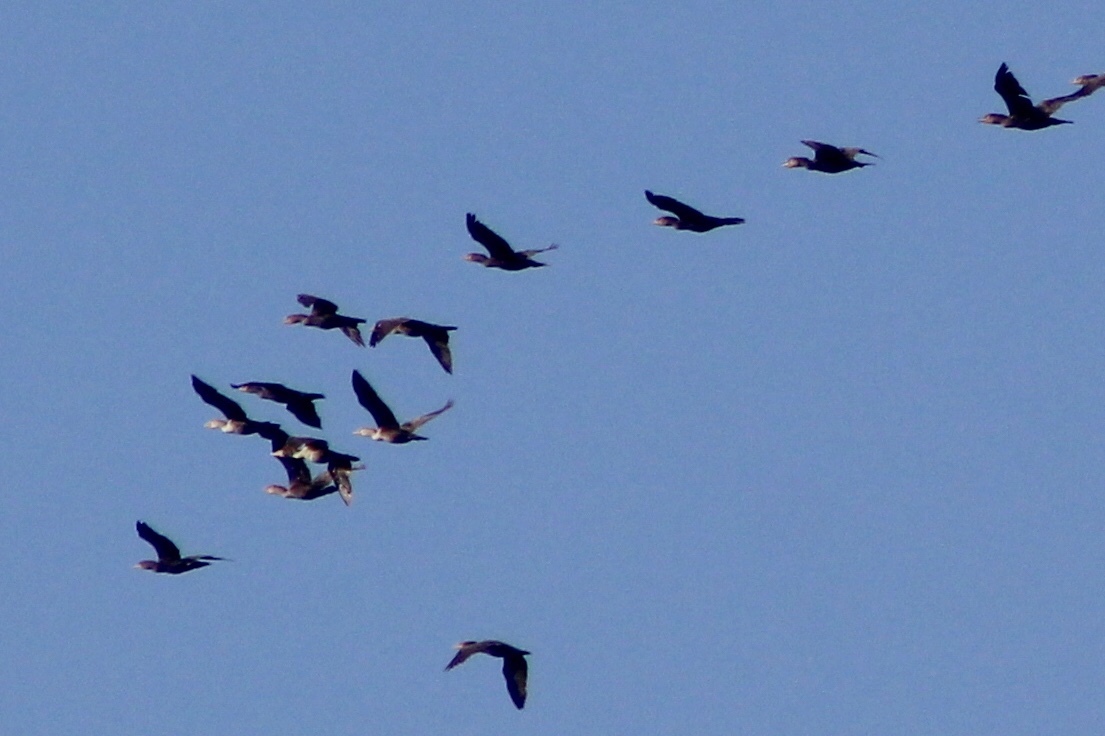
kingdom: Animalia
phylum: Chordata
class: Aves
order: Suliformes
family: Phalacrocoracidae
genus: Phalacrocorax
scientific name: Phalacrocorax auritus
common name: Double-crested cormorant
